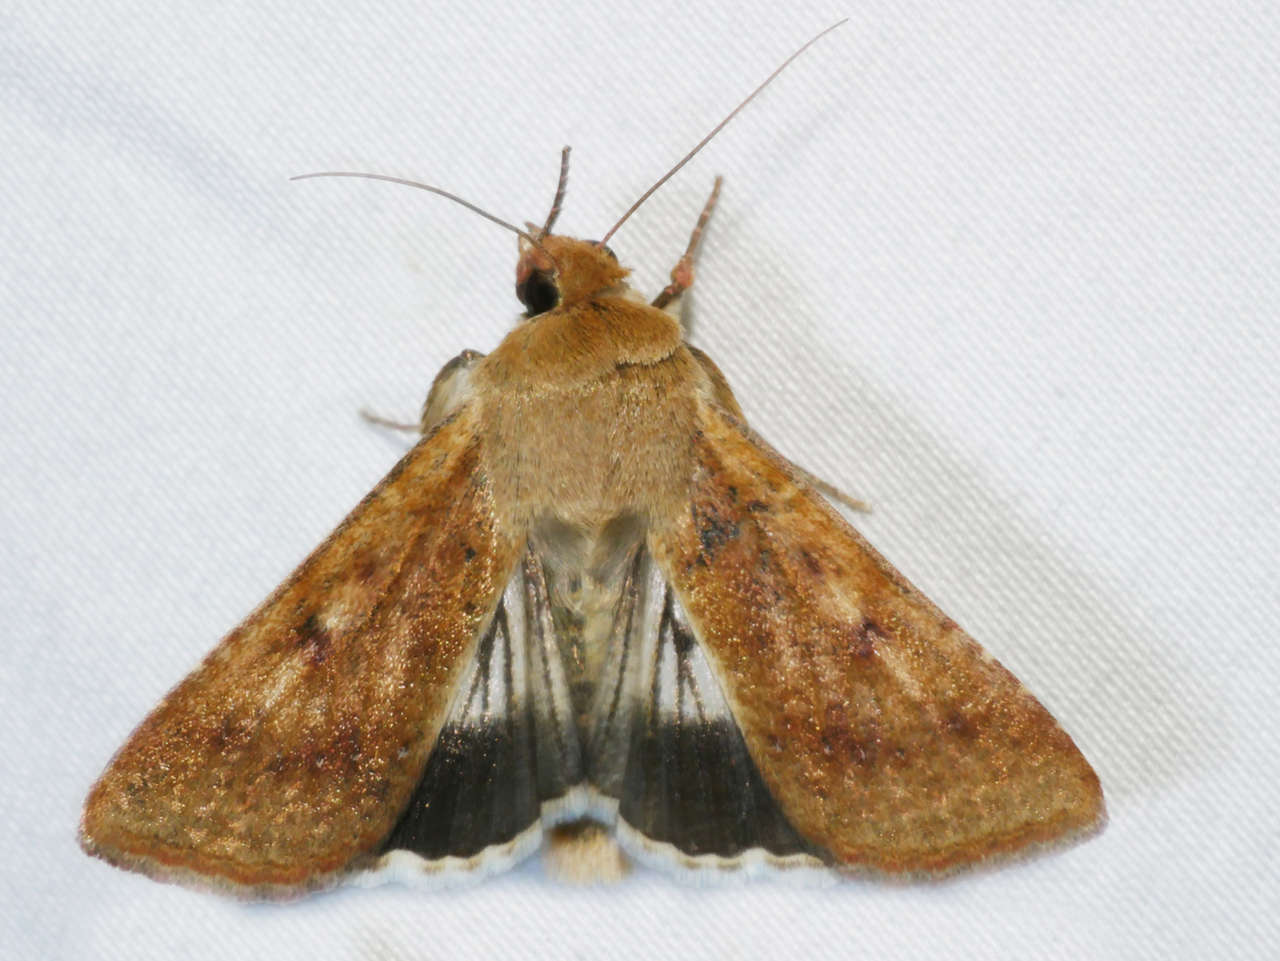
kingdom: Animalia
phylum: Arthropoda
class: Insecta
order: Lepidoptera
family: Noctuidae
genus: Helicoverpa
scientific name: Helicoverpa punctigera
